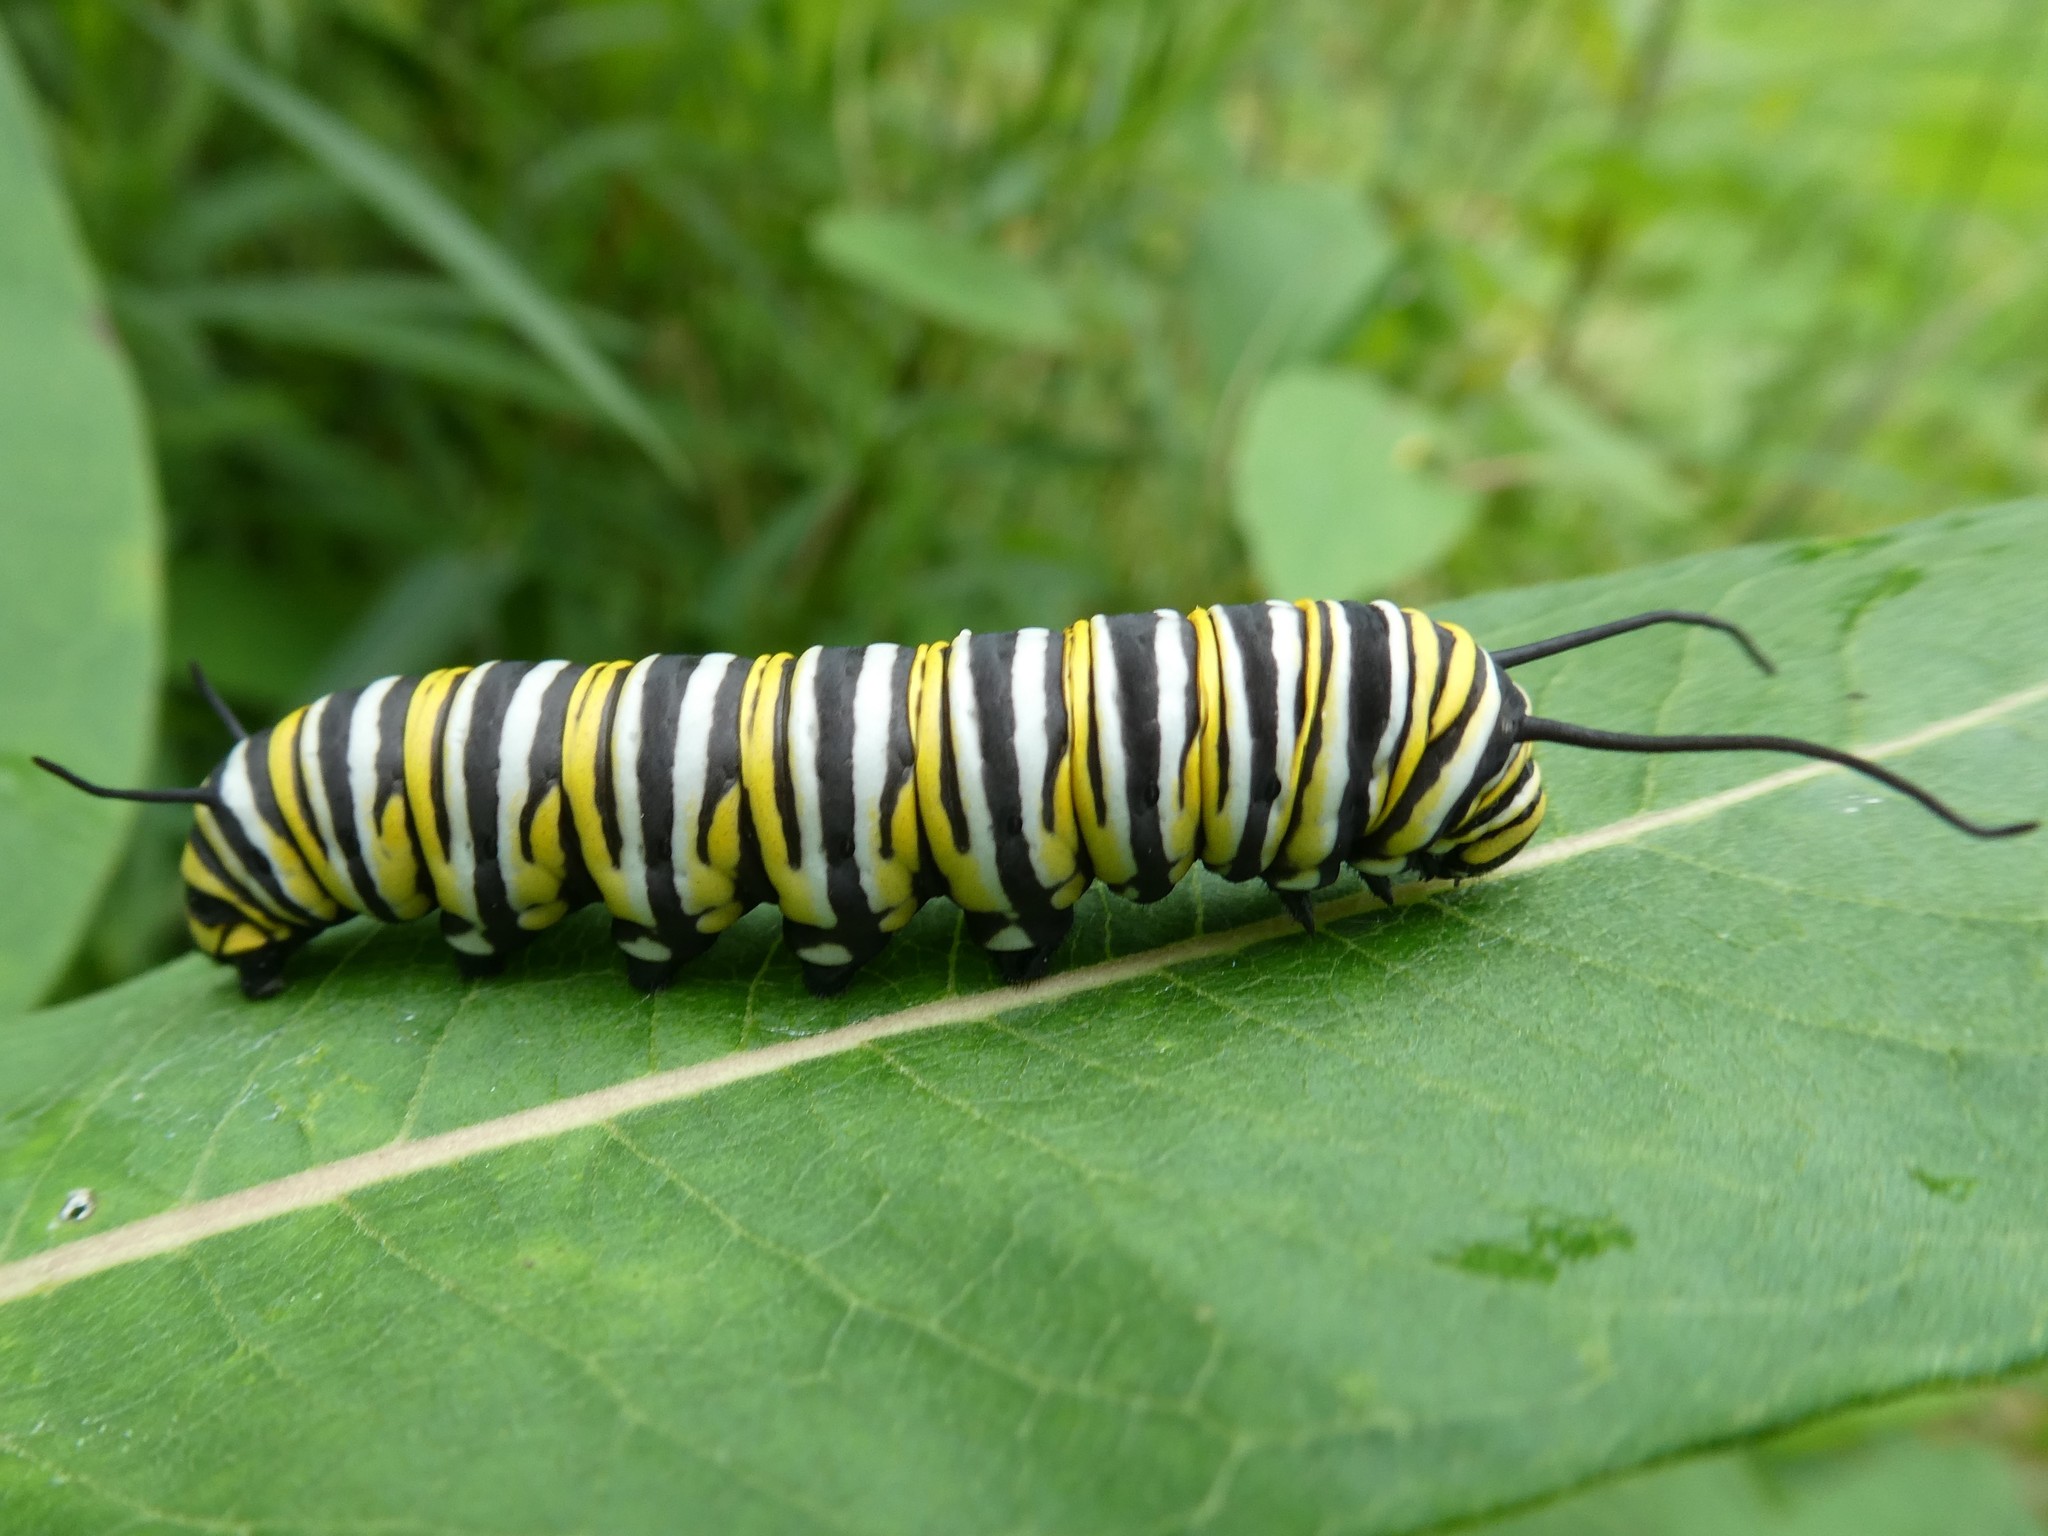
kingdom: Animalia
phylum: Arthropoda
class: Insecta
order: Lepidoptera
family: Nymphalidae
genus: Danaus
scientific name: Danaus plexippus
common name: Monarch
